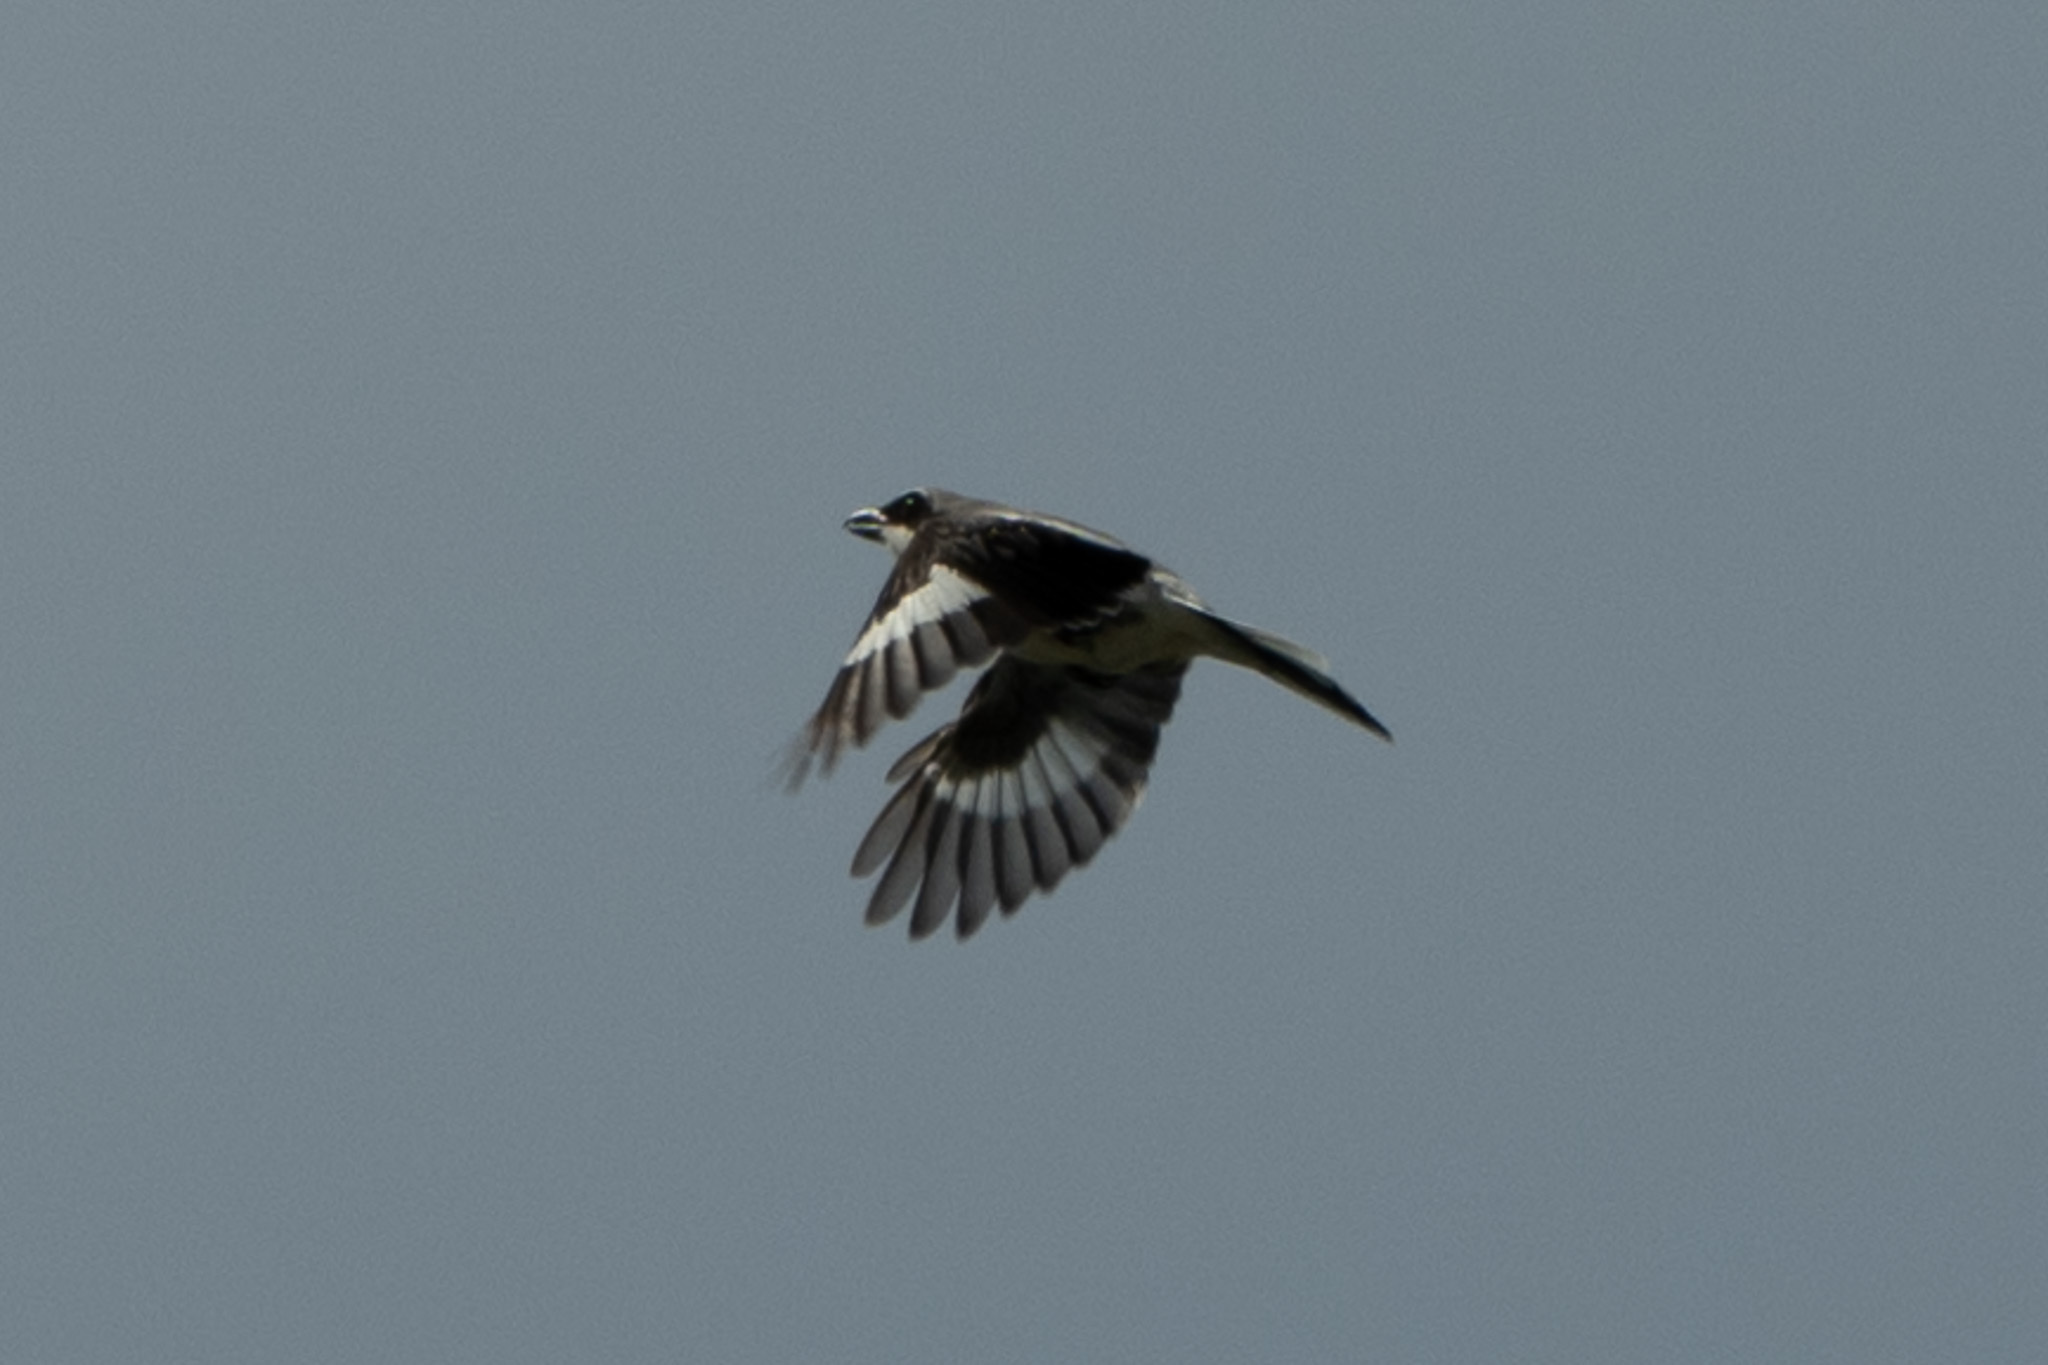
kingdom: Animalia
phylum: Chordata
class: Aves
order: Passeriformes
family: Laniidae
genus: Lanius
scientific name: Lanius ludovicianus
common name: Loggerhead shrike
